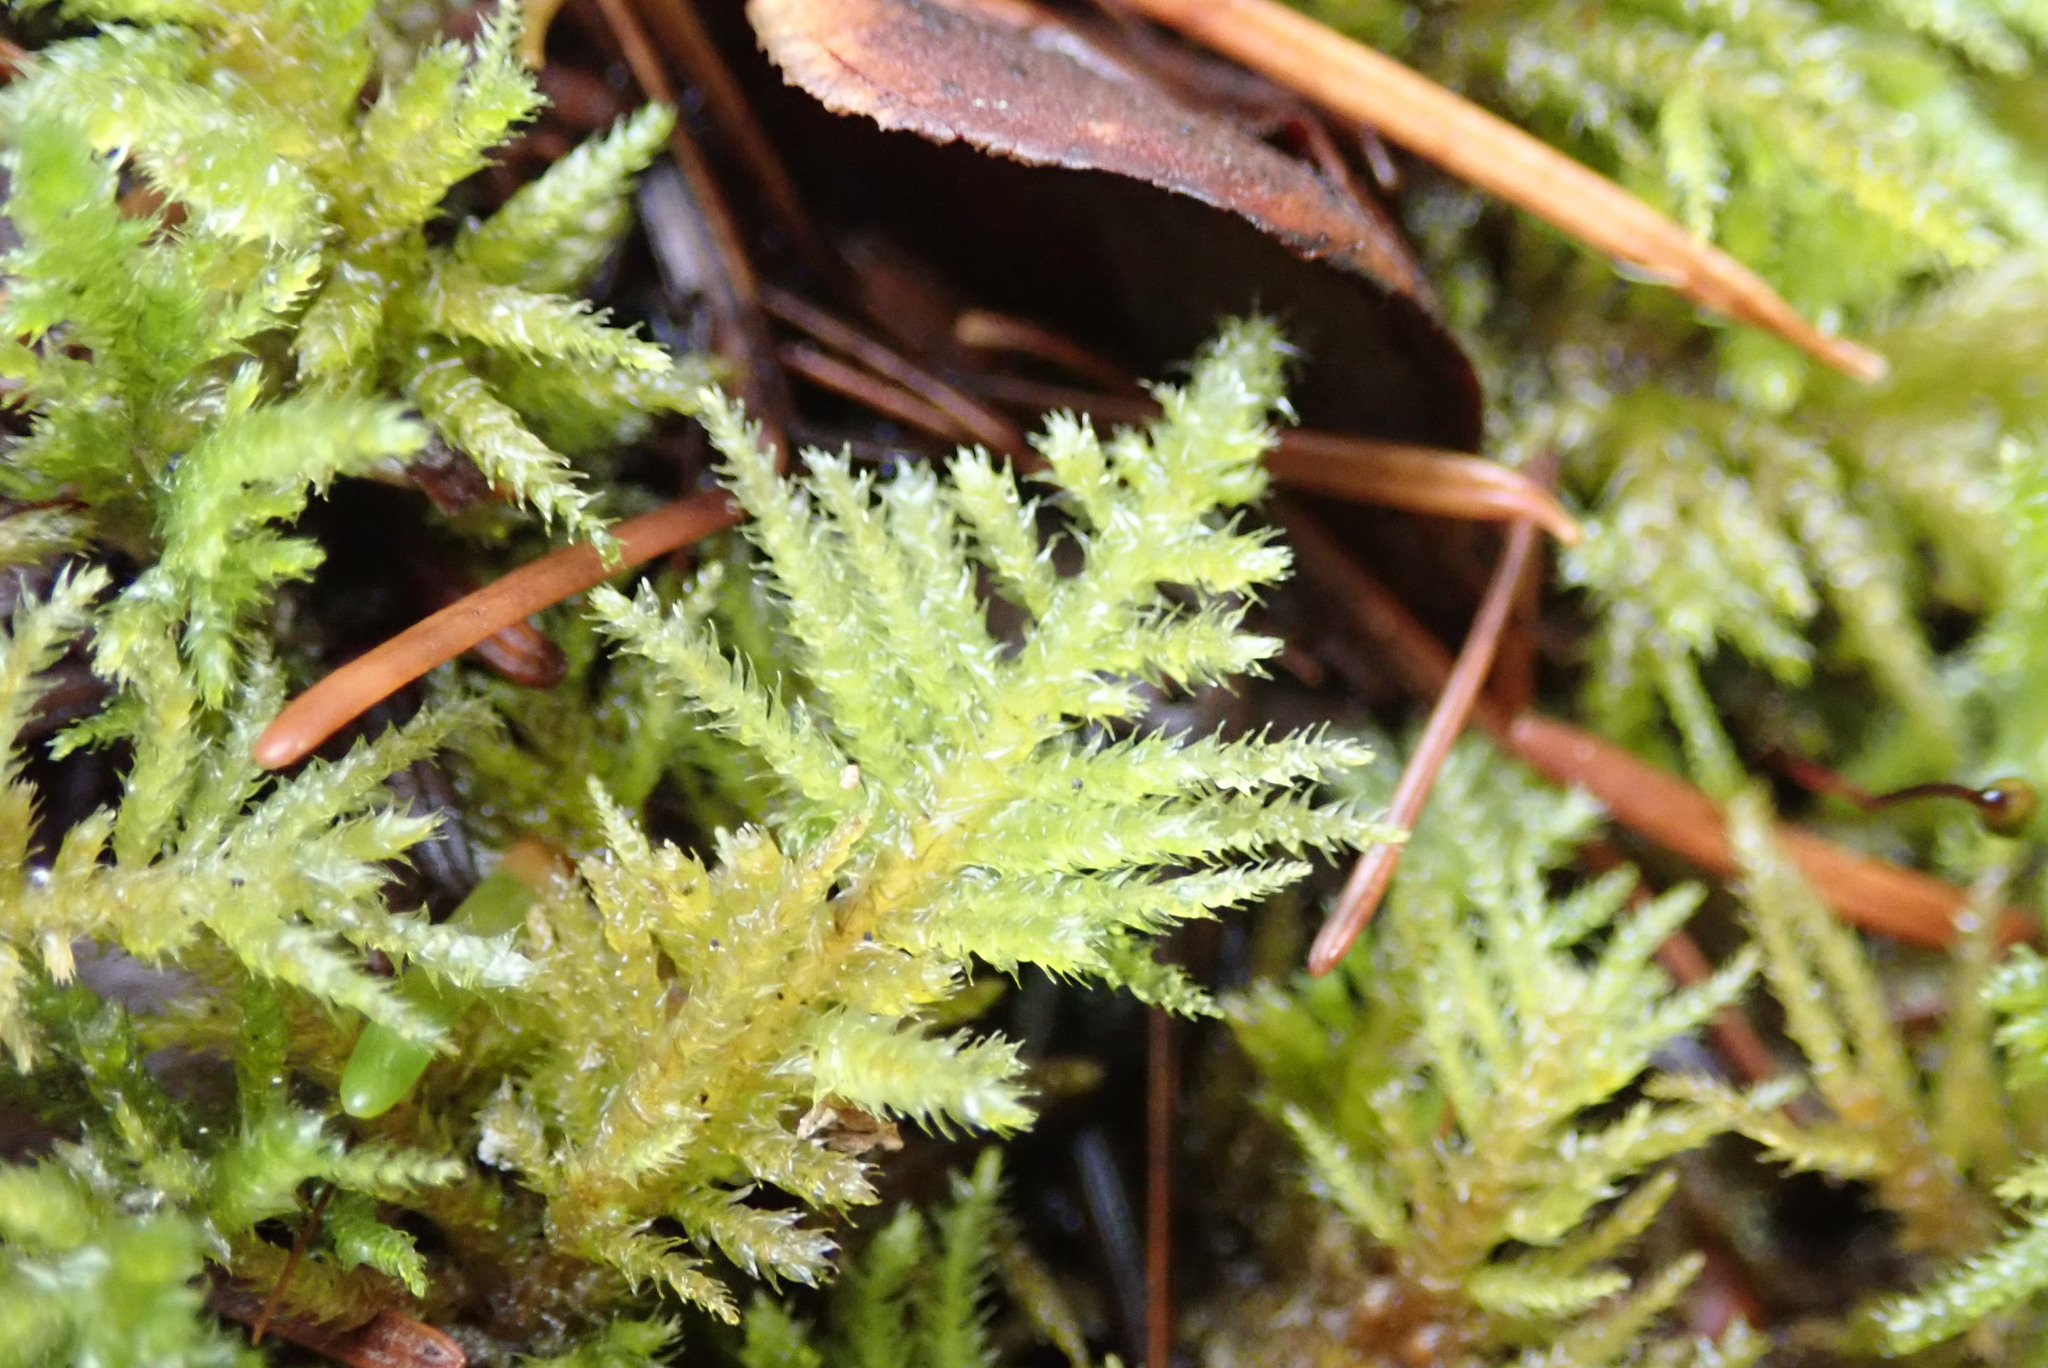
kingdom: Plantae
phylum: Bryophyta
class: Bryopsida
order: Hypnales
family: Brachytheciaceae
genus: Kindbergia
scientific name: Kindbergia oregana
